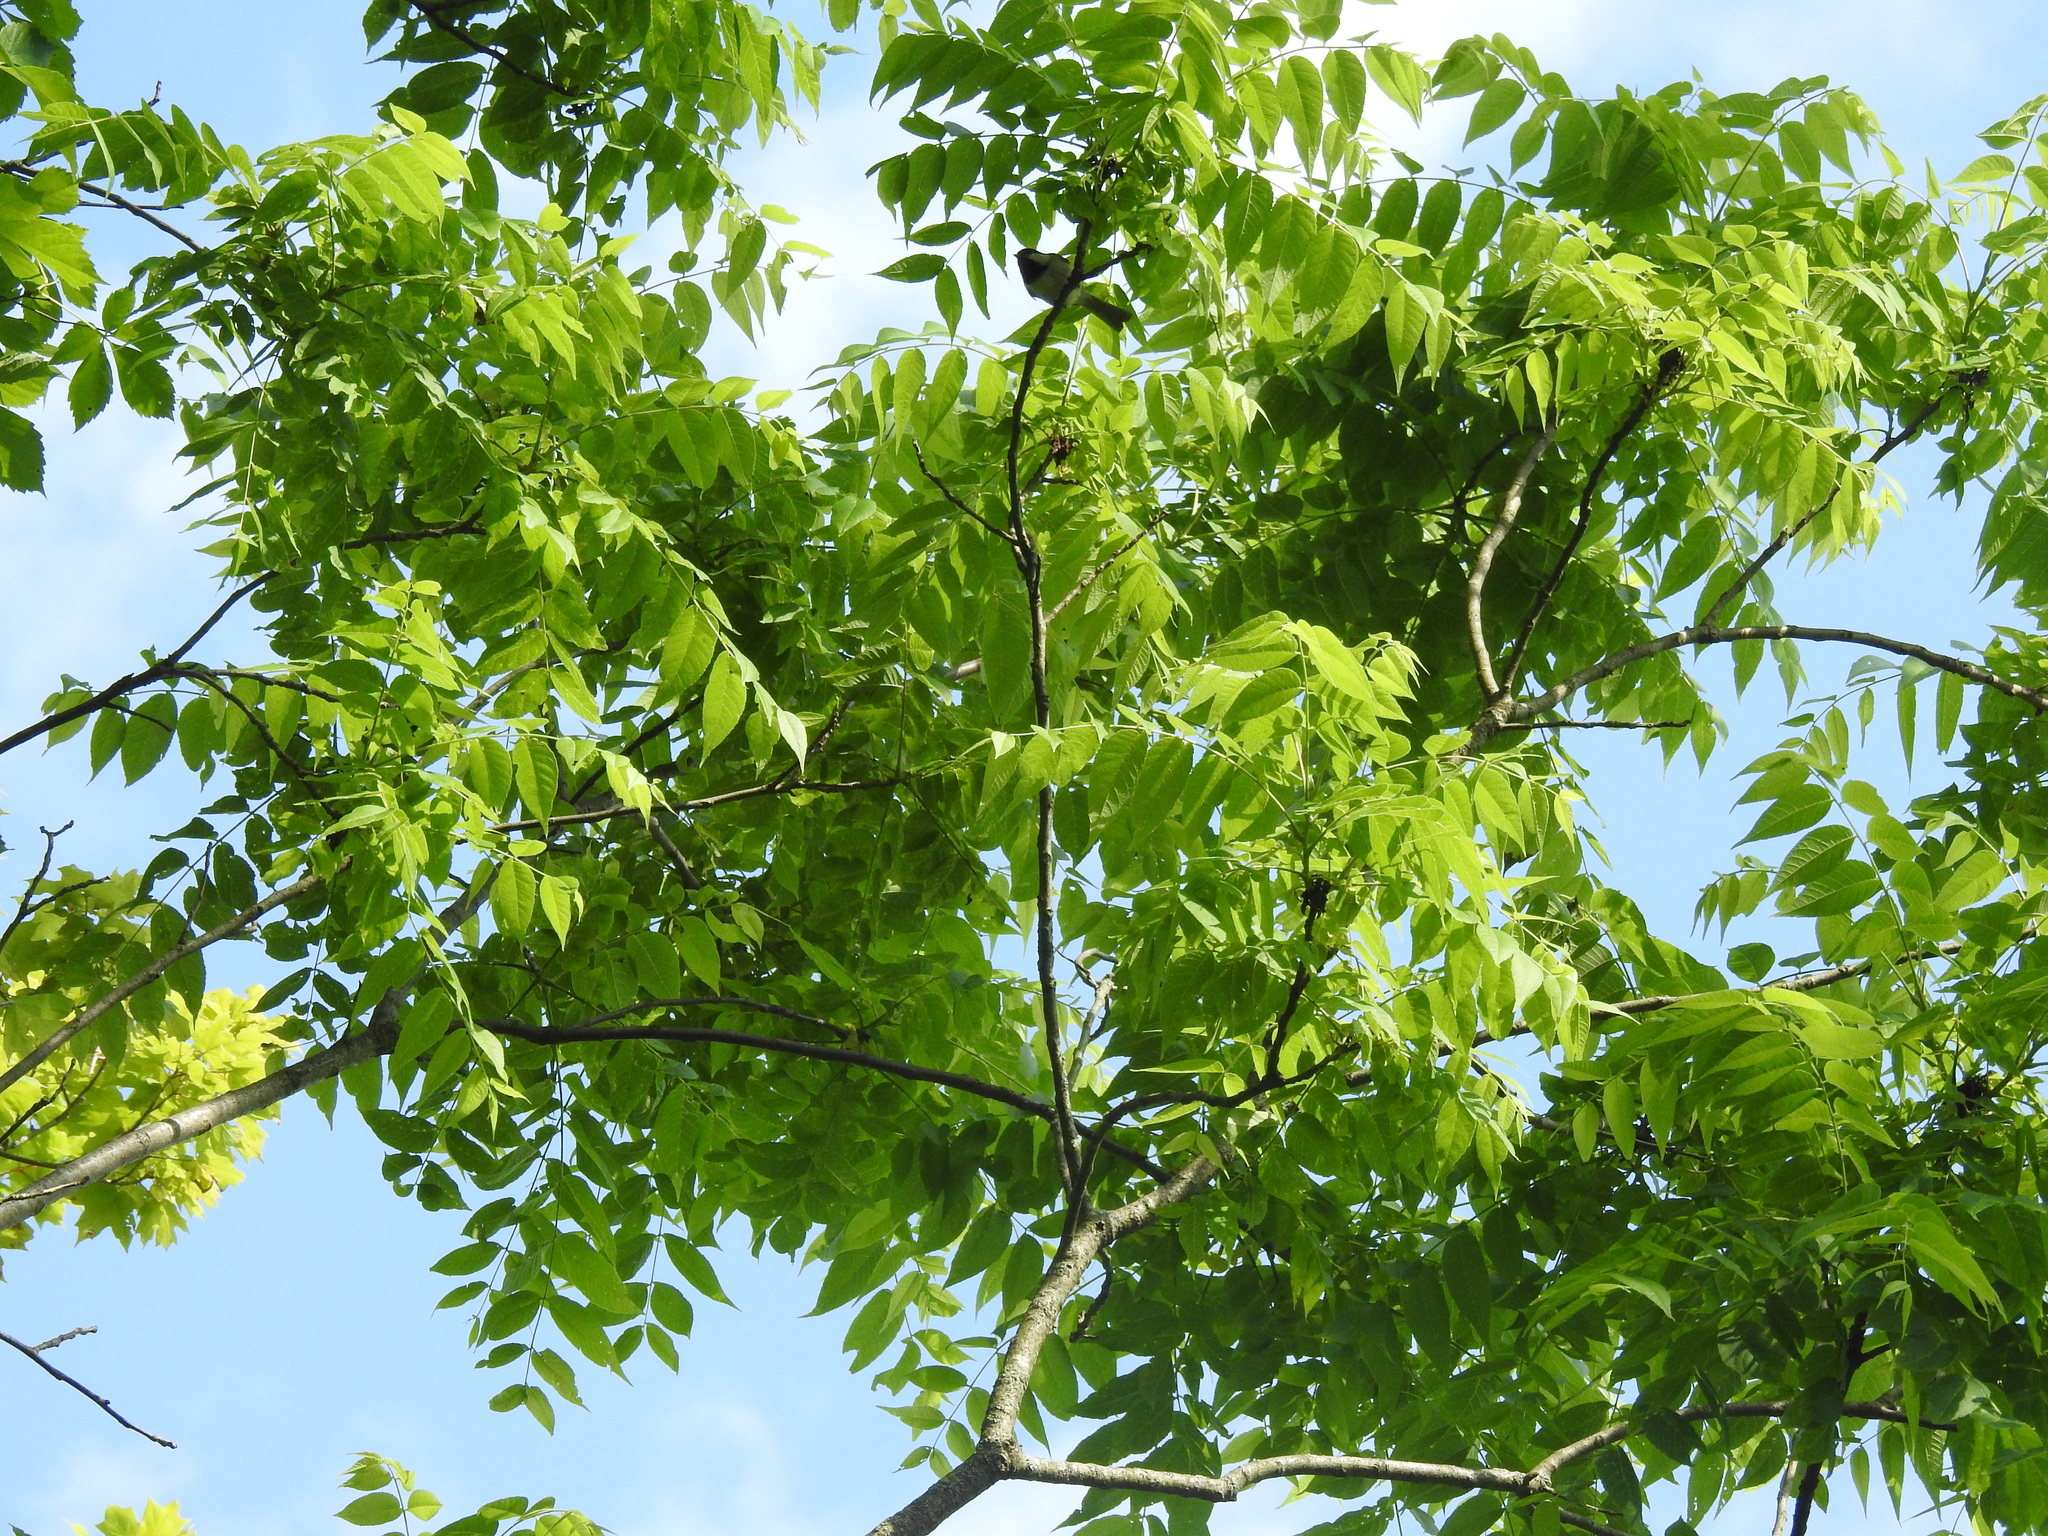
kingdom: Plantae
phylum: Tracheophyta
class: Magnoliopsida
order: Fagales
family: Juglandaceae
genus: Juglans
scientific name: Juglans nigra
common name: Black walnut
